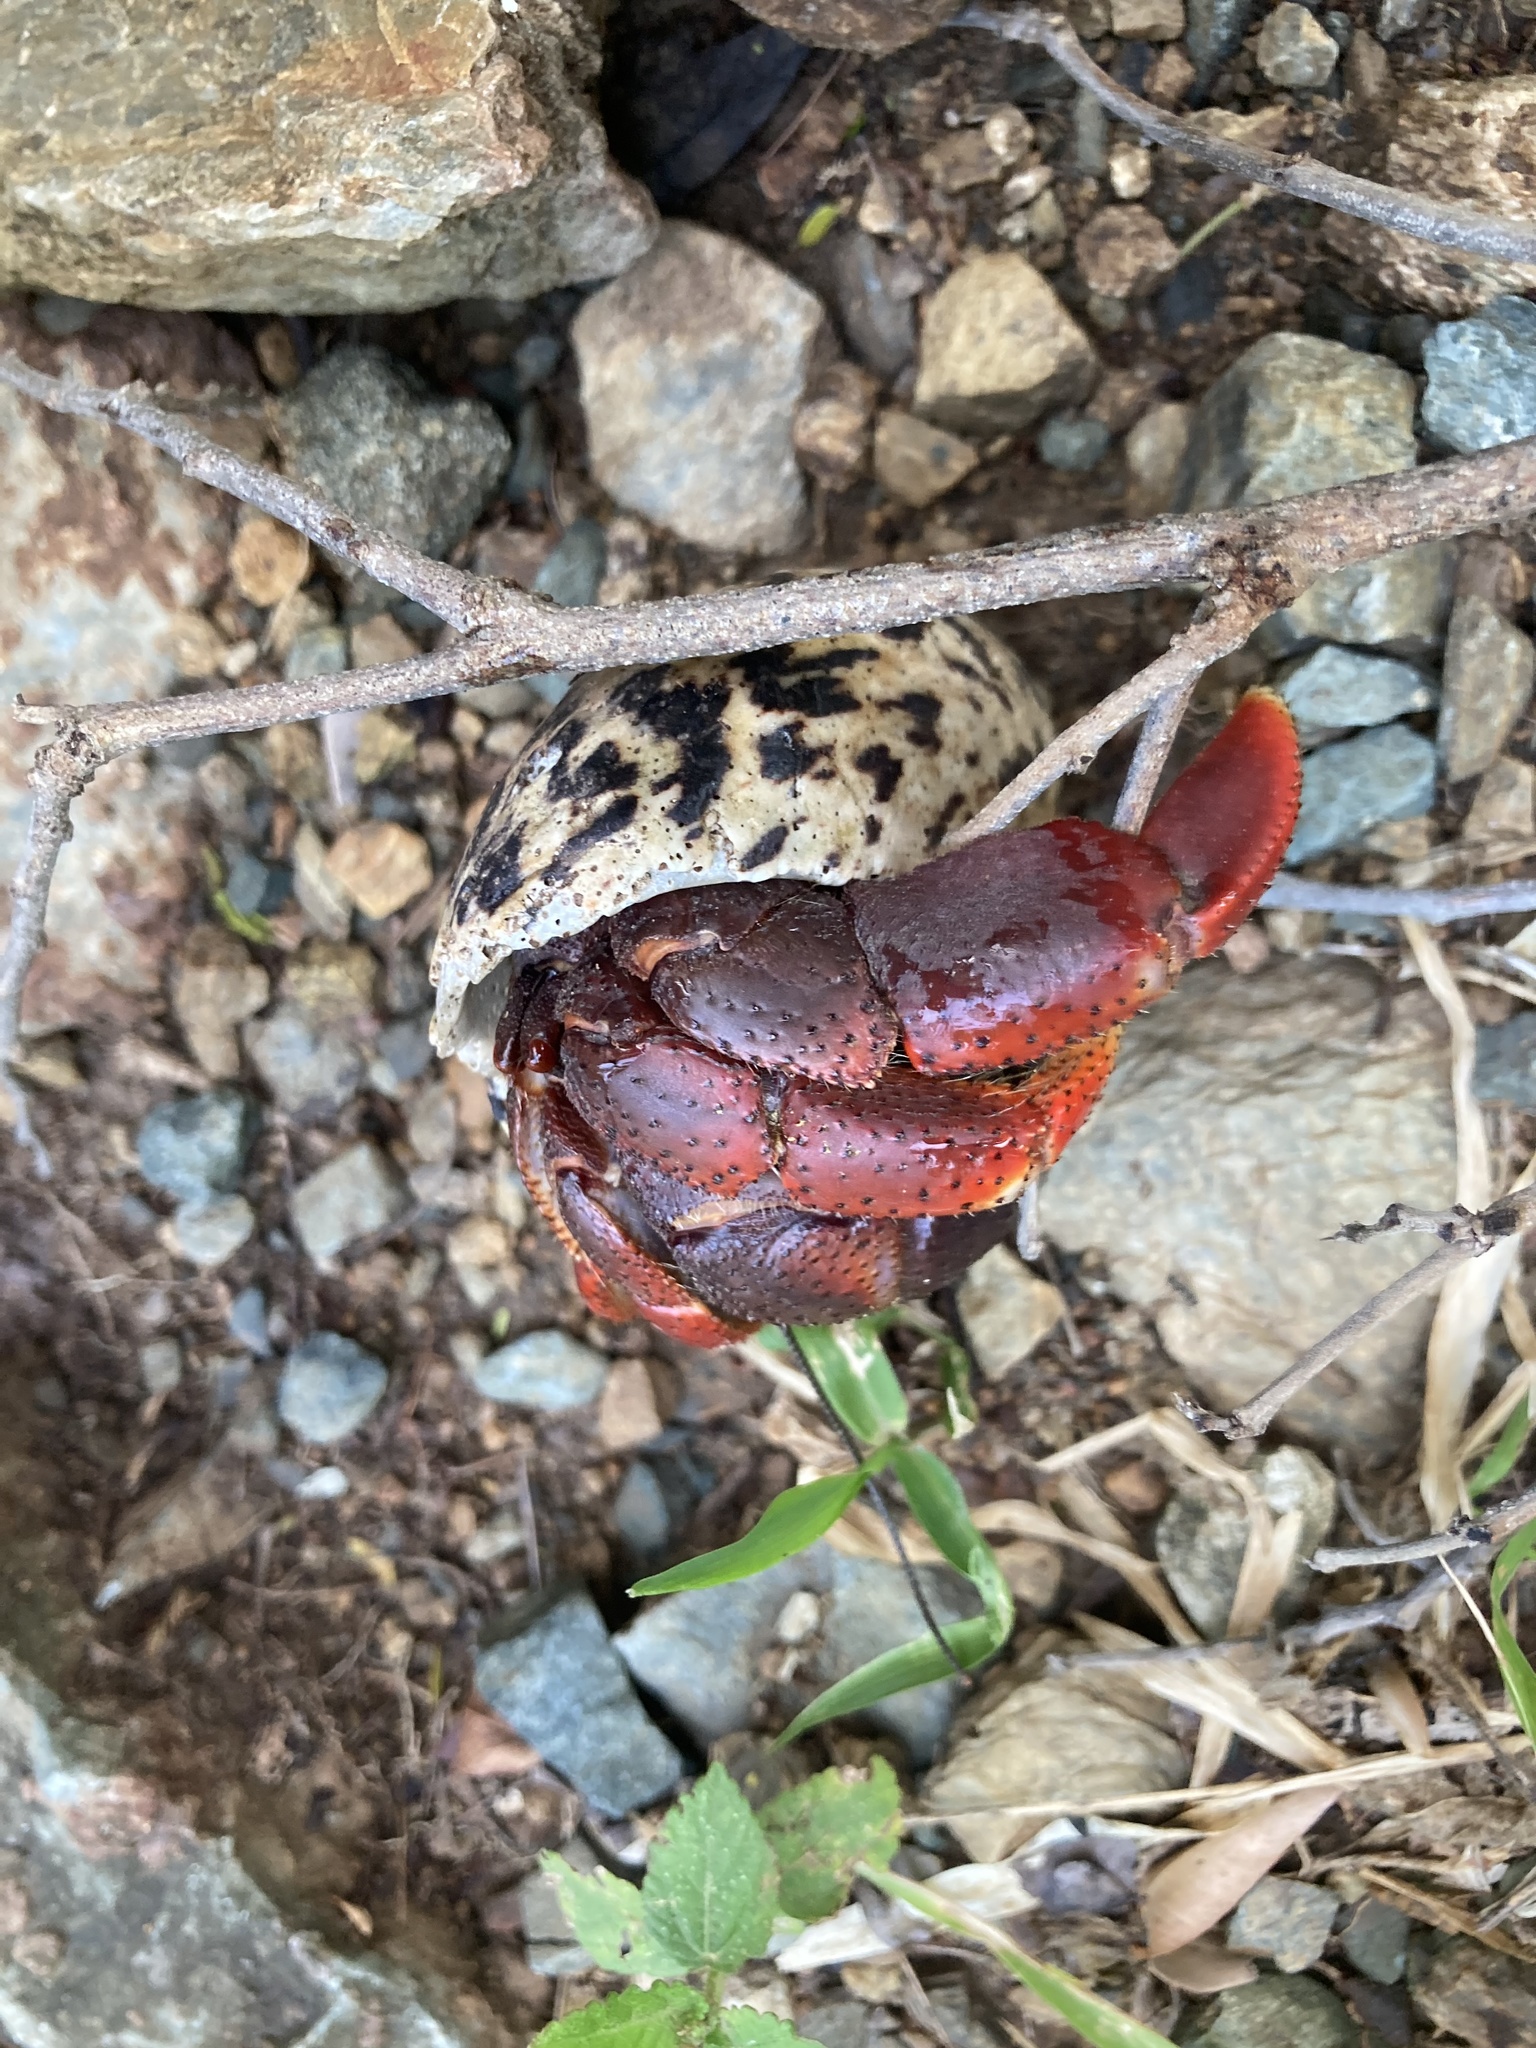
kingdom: Animalia
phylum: Arthropoda
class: Malacostraca
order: Decapoda
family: Coenobitidae
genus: Coenobita
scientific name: Coenobita clypeatus
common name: Caribbean hermit crab
